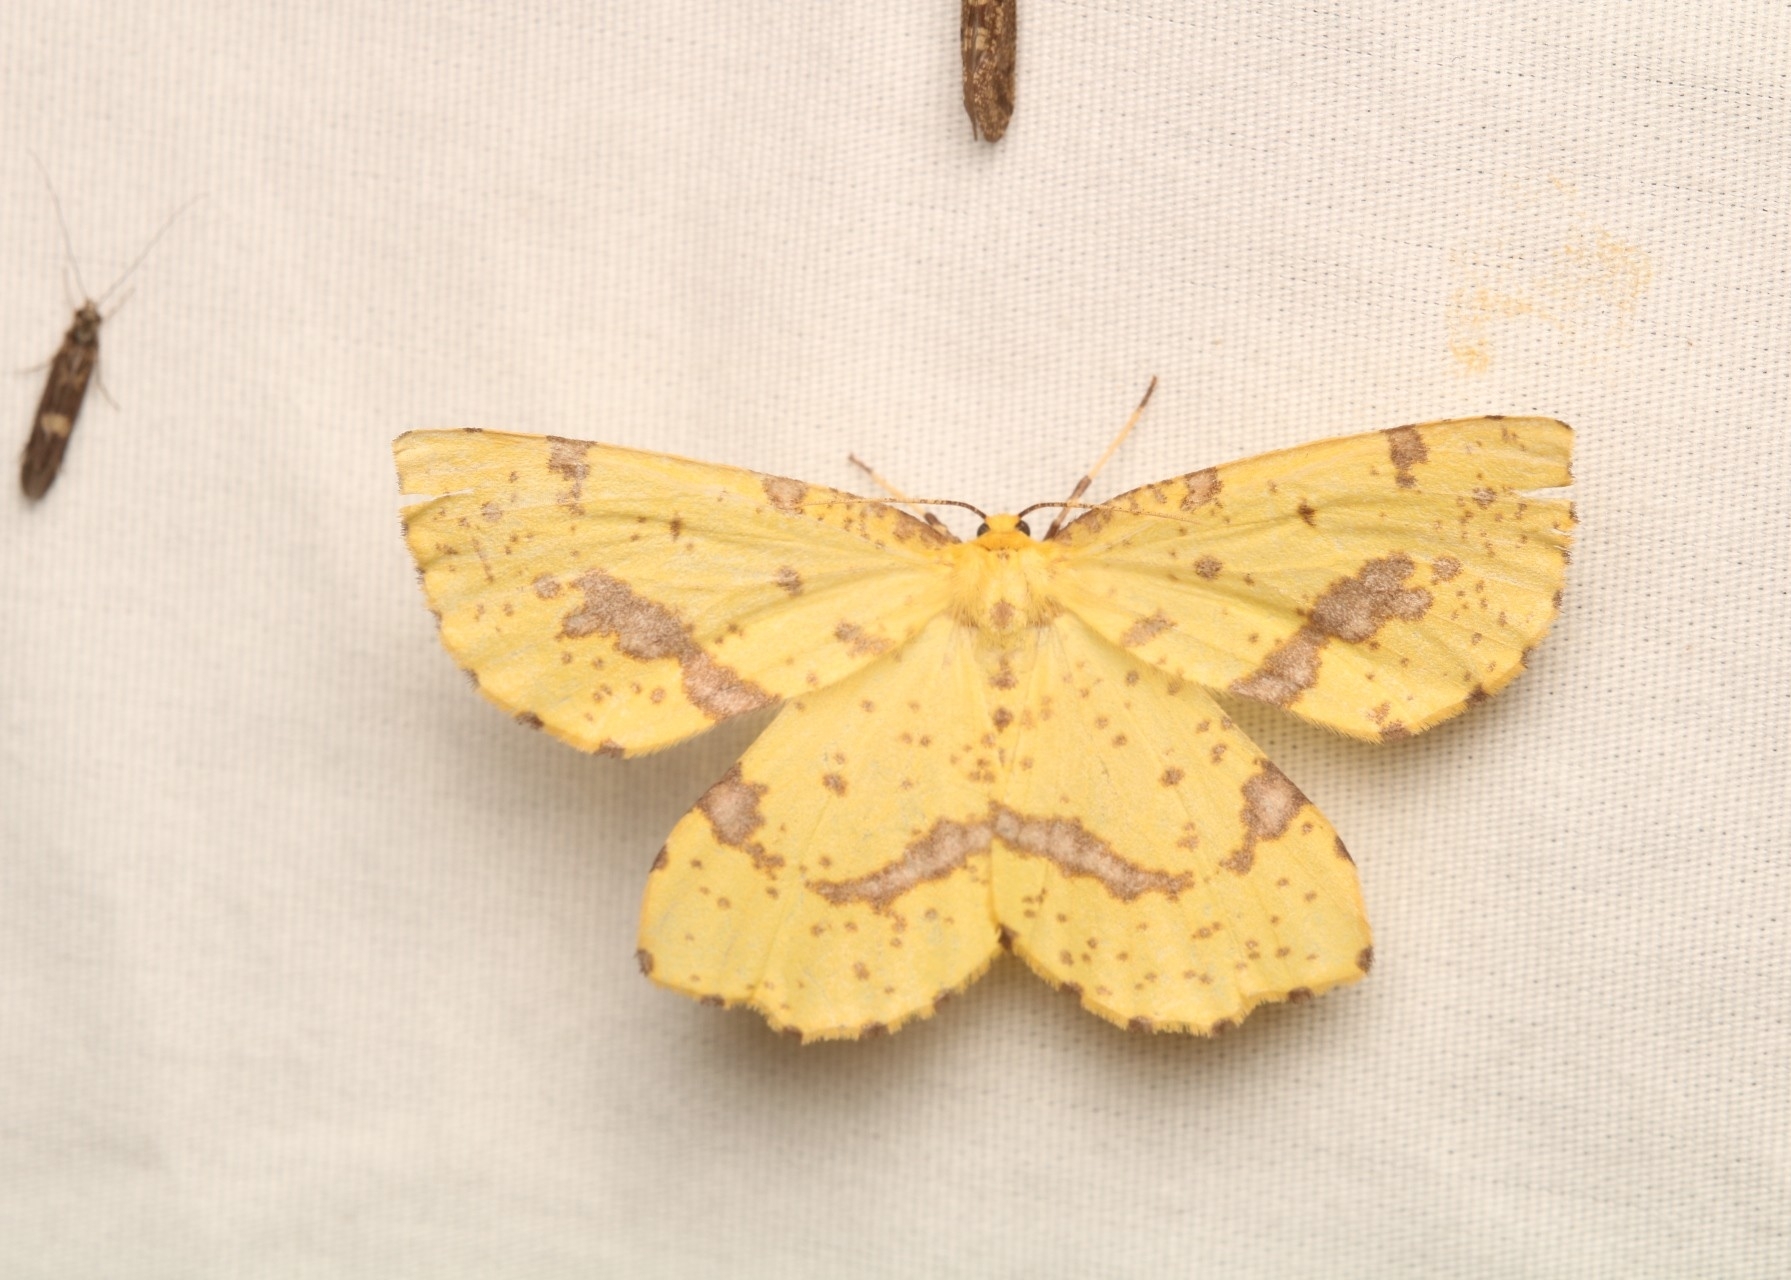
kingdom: Animalia
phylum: Arthropoda
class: Insecta
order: Lepidoptera
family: Geometridae
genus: Xanthotype
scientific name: Xanthotype
